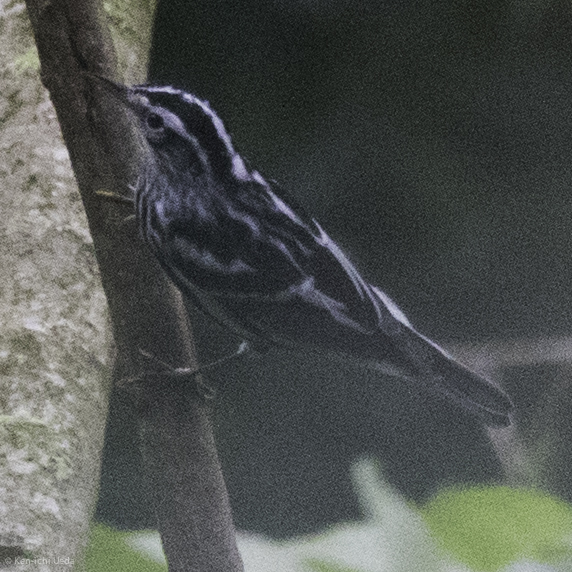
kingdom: Animalia
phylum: Chordata
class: Aves
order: Passeriformes
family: Parulidae
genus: Mniotilta
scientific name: Mniotilta varia
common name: Black-and-white warbler
